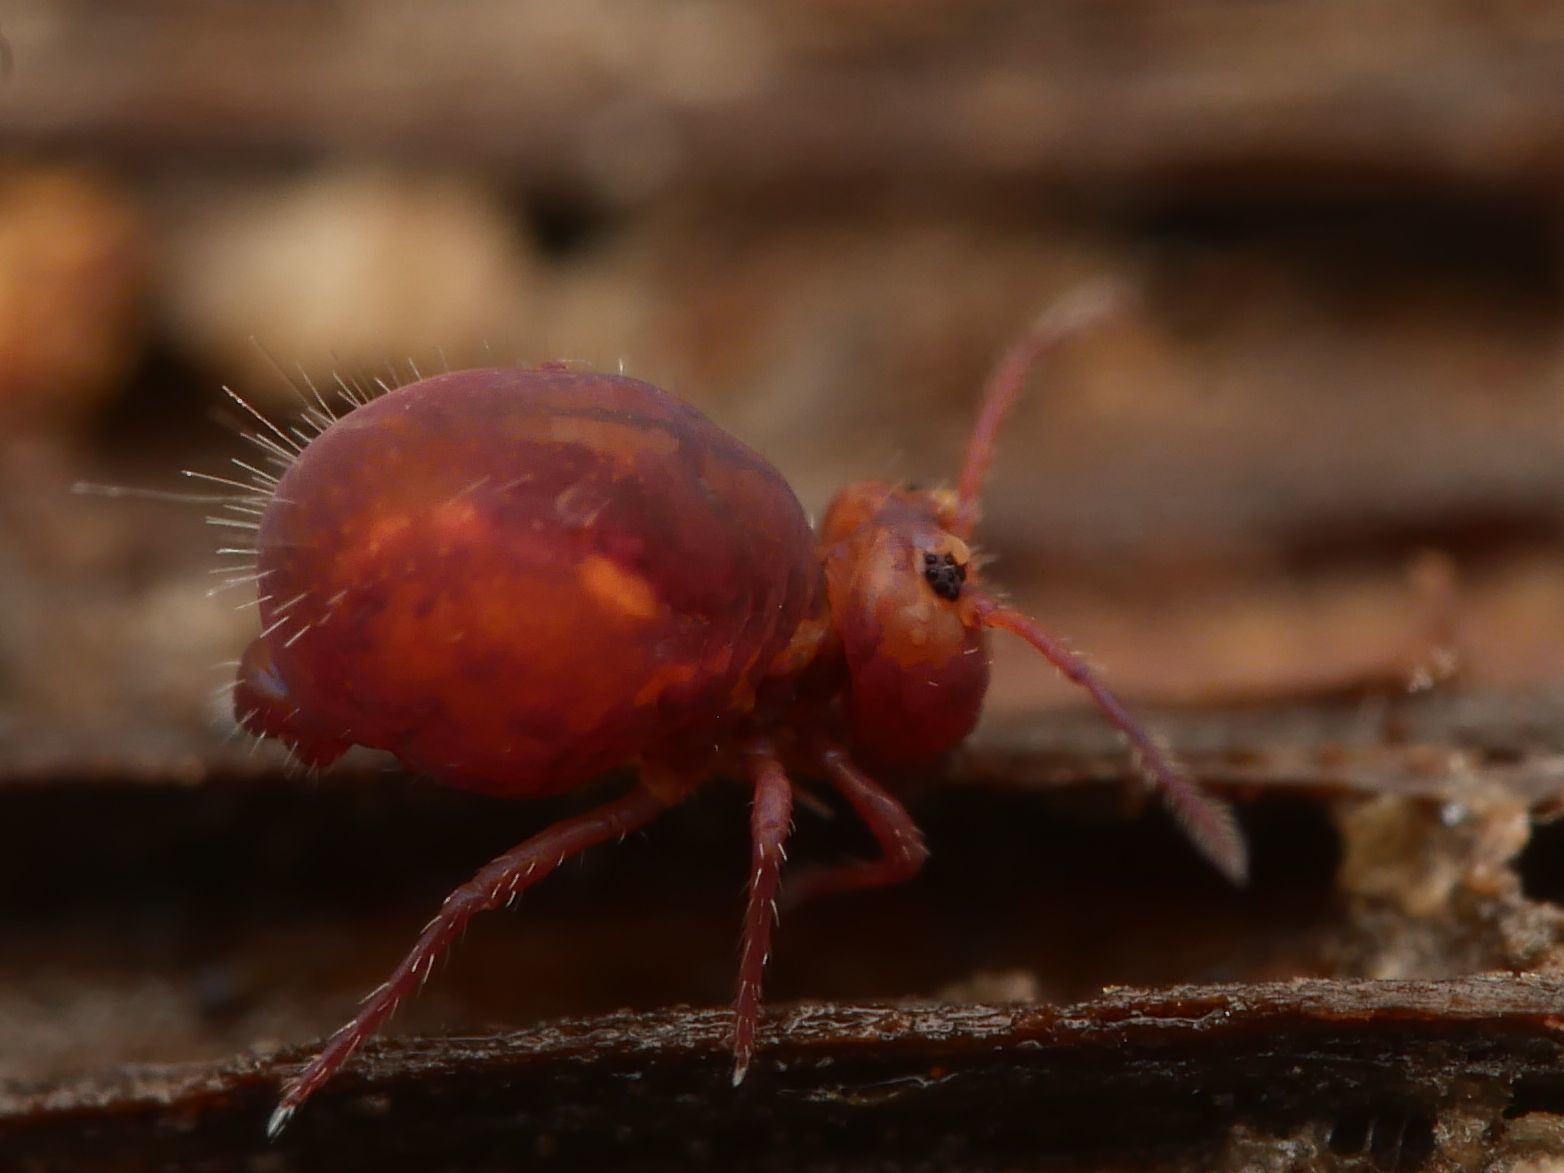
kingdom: Animalia
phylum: Arthropoda
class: Collembola
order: Symphypleona
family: Dicyrtomidae
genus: Dicyrtoma
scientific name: Dicyrtoma fusca
